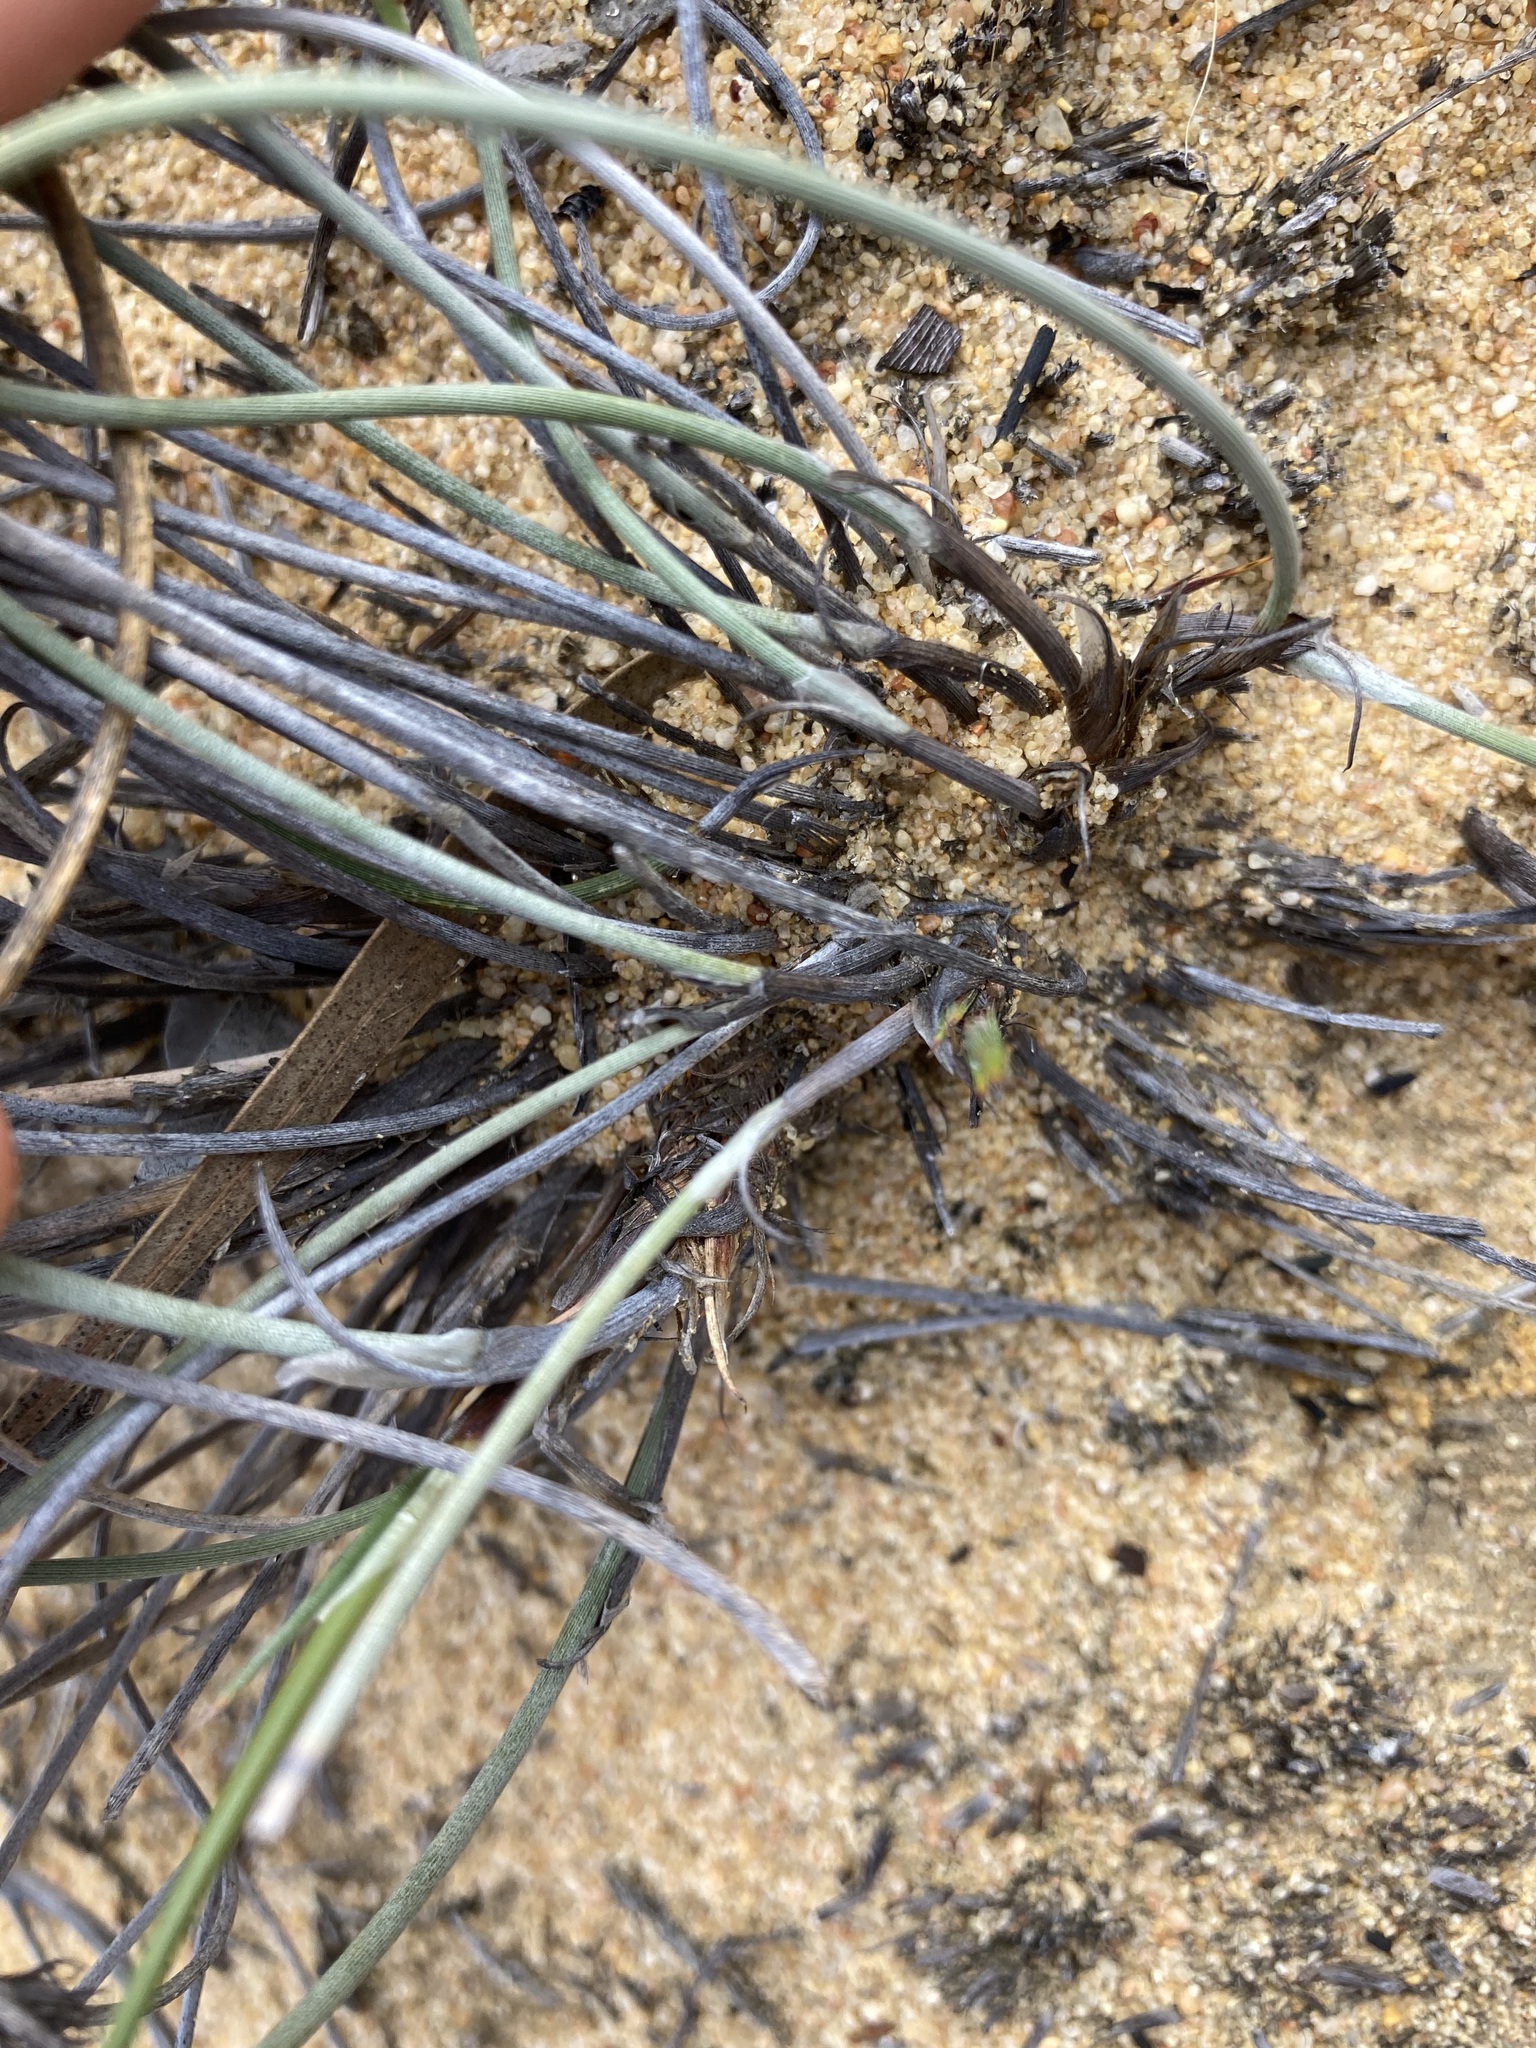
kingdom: Plantae
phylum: Tracheophyta
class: Liliopsida
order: Poales
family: Cyperaceae
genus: Mesomelaena
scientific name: Mesomelaena preissii
